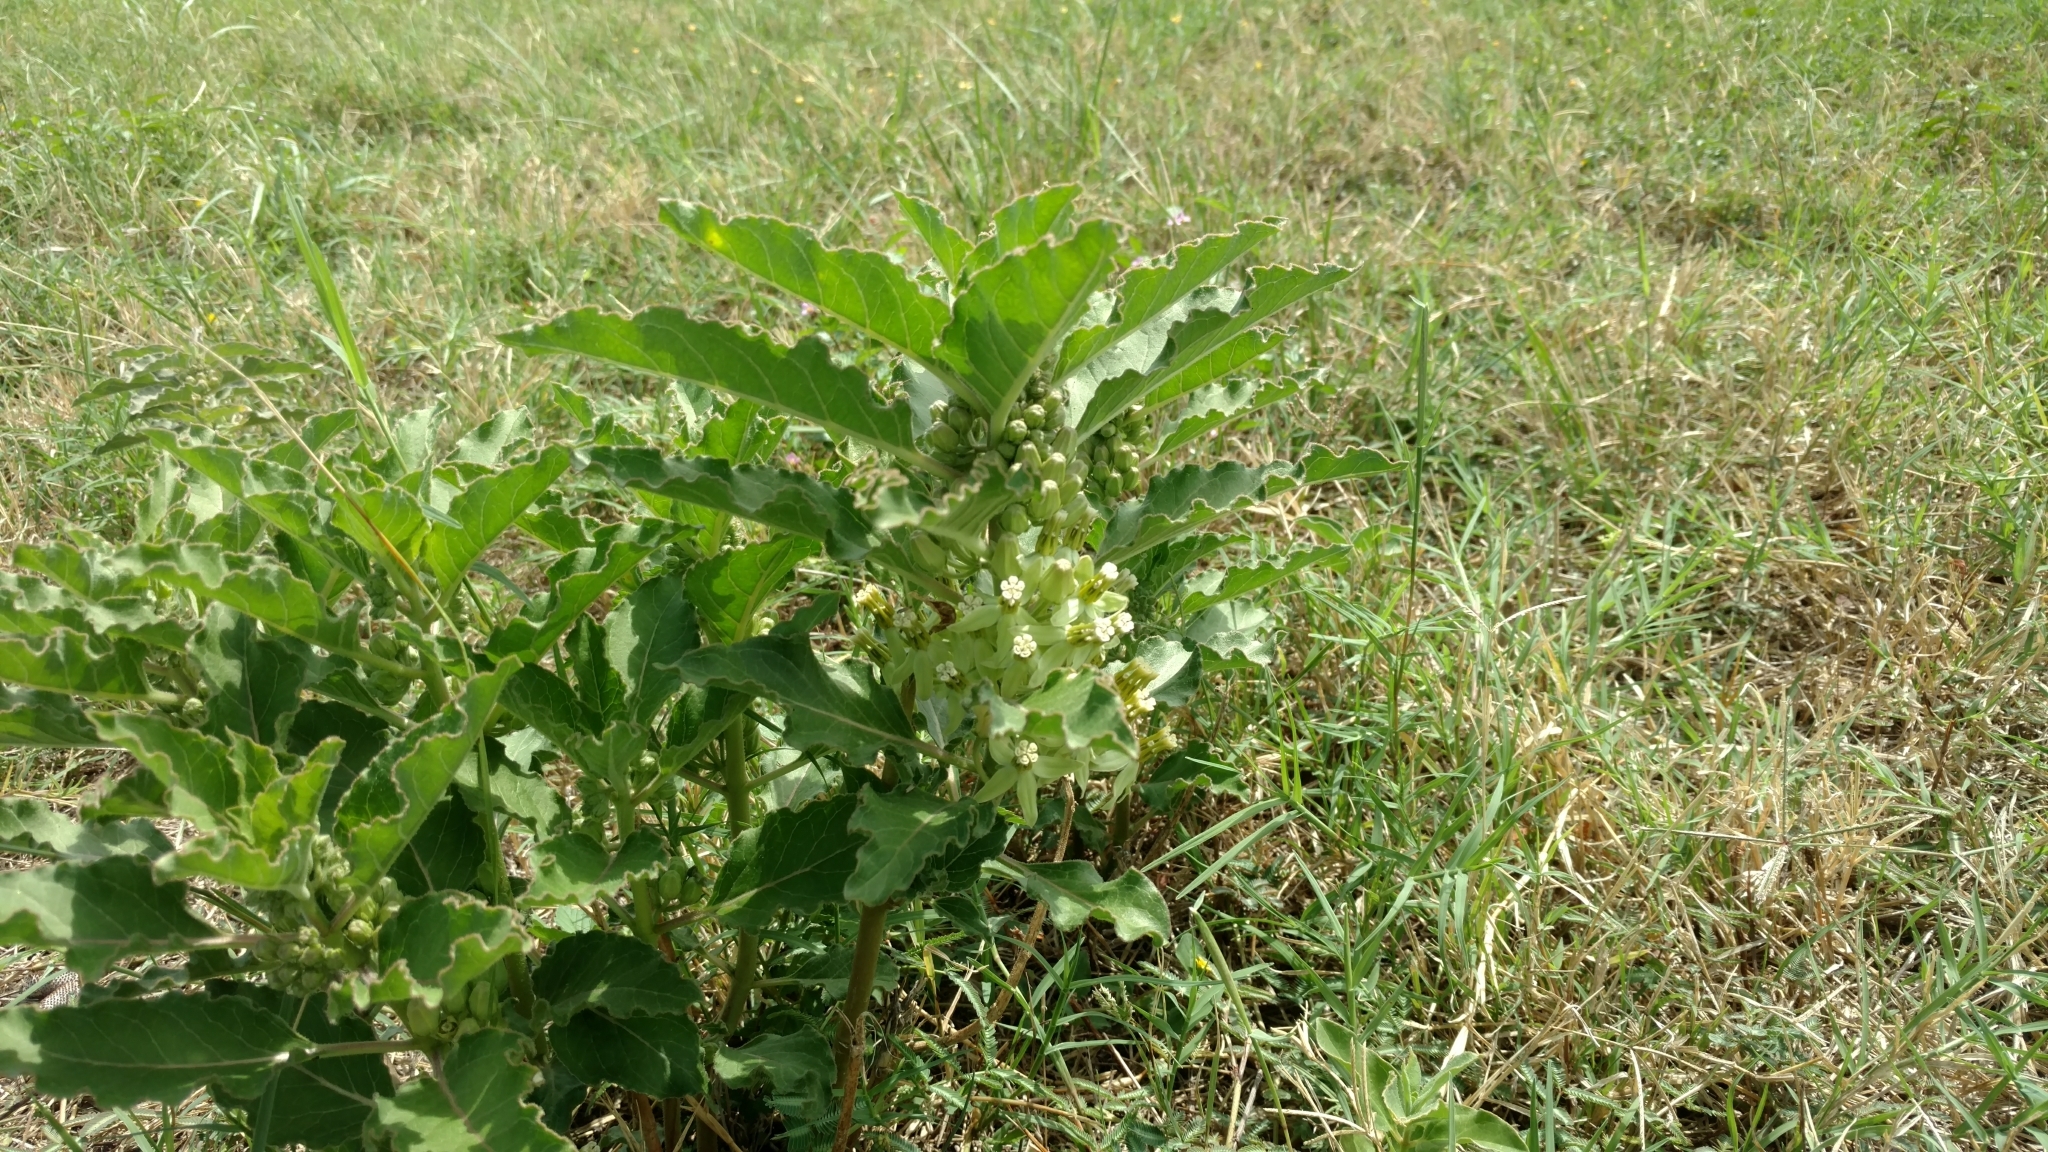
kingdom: Plantae
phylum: Tracheophyta
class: Magnoliopsida
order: Gentianales
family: Apocynaceae
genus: Asclepias
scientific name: Asclepias oenotheroides
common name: Zizotes milkweed
